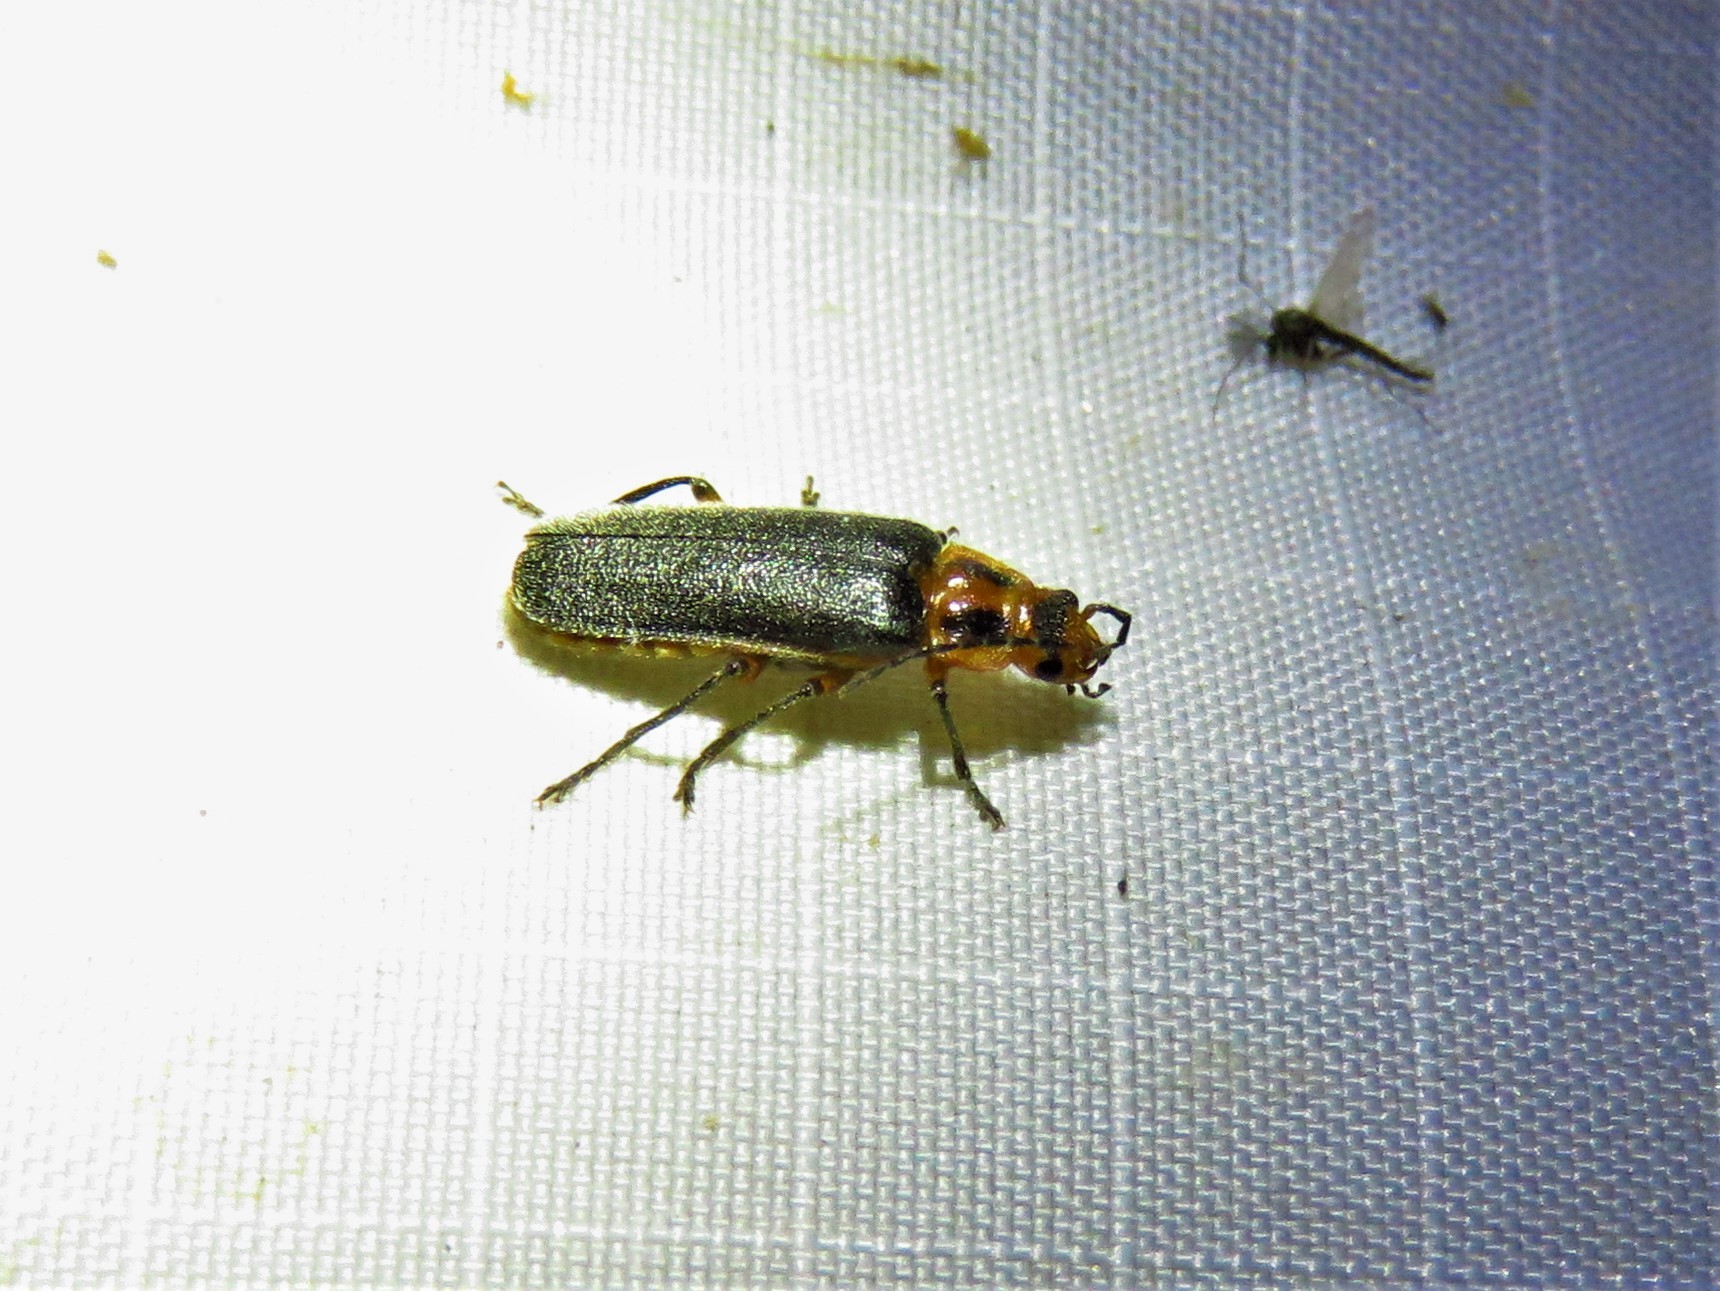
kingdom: Animalia
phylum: Arthropoda
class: Insecta
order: Coleoptera
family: Cantharidae
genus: Atalantycha
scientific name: Atalantycha bilineata
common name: Two-lined leatherwing
